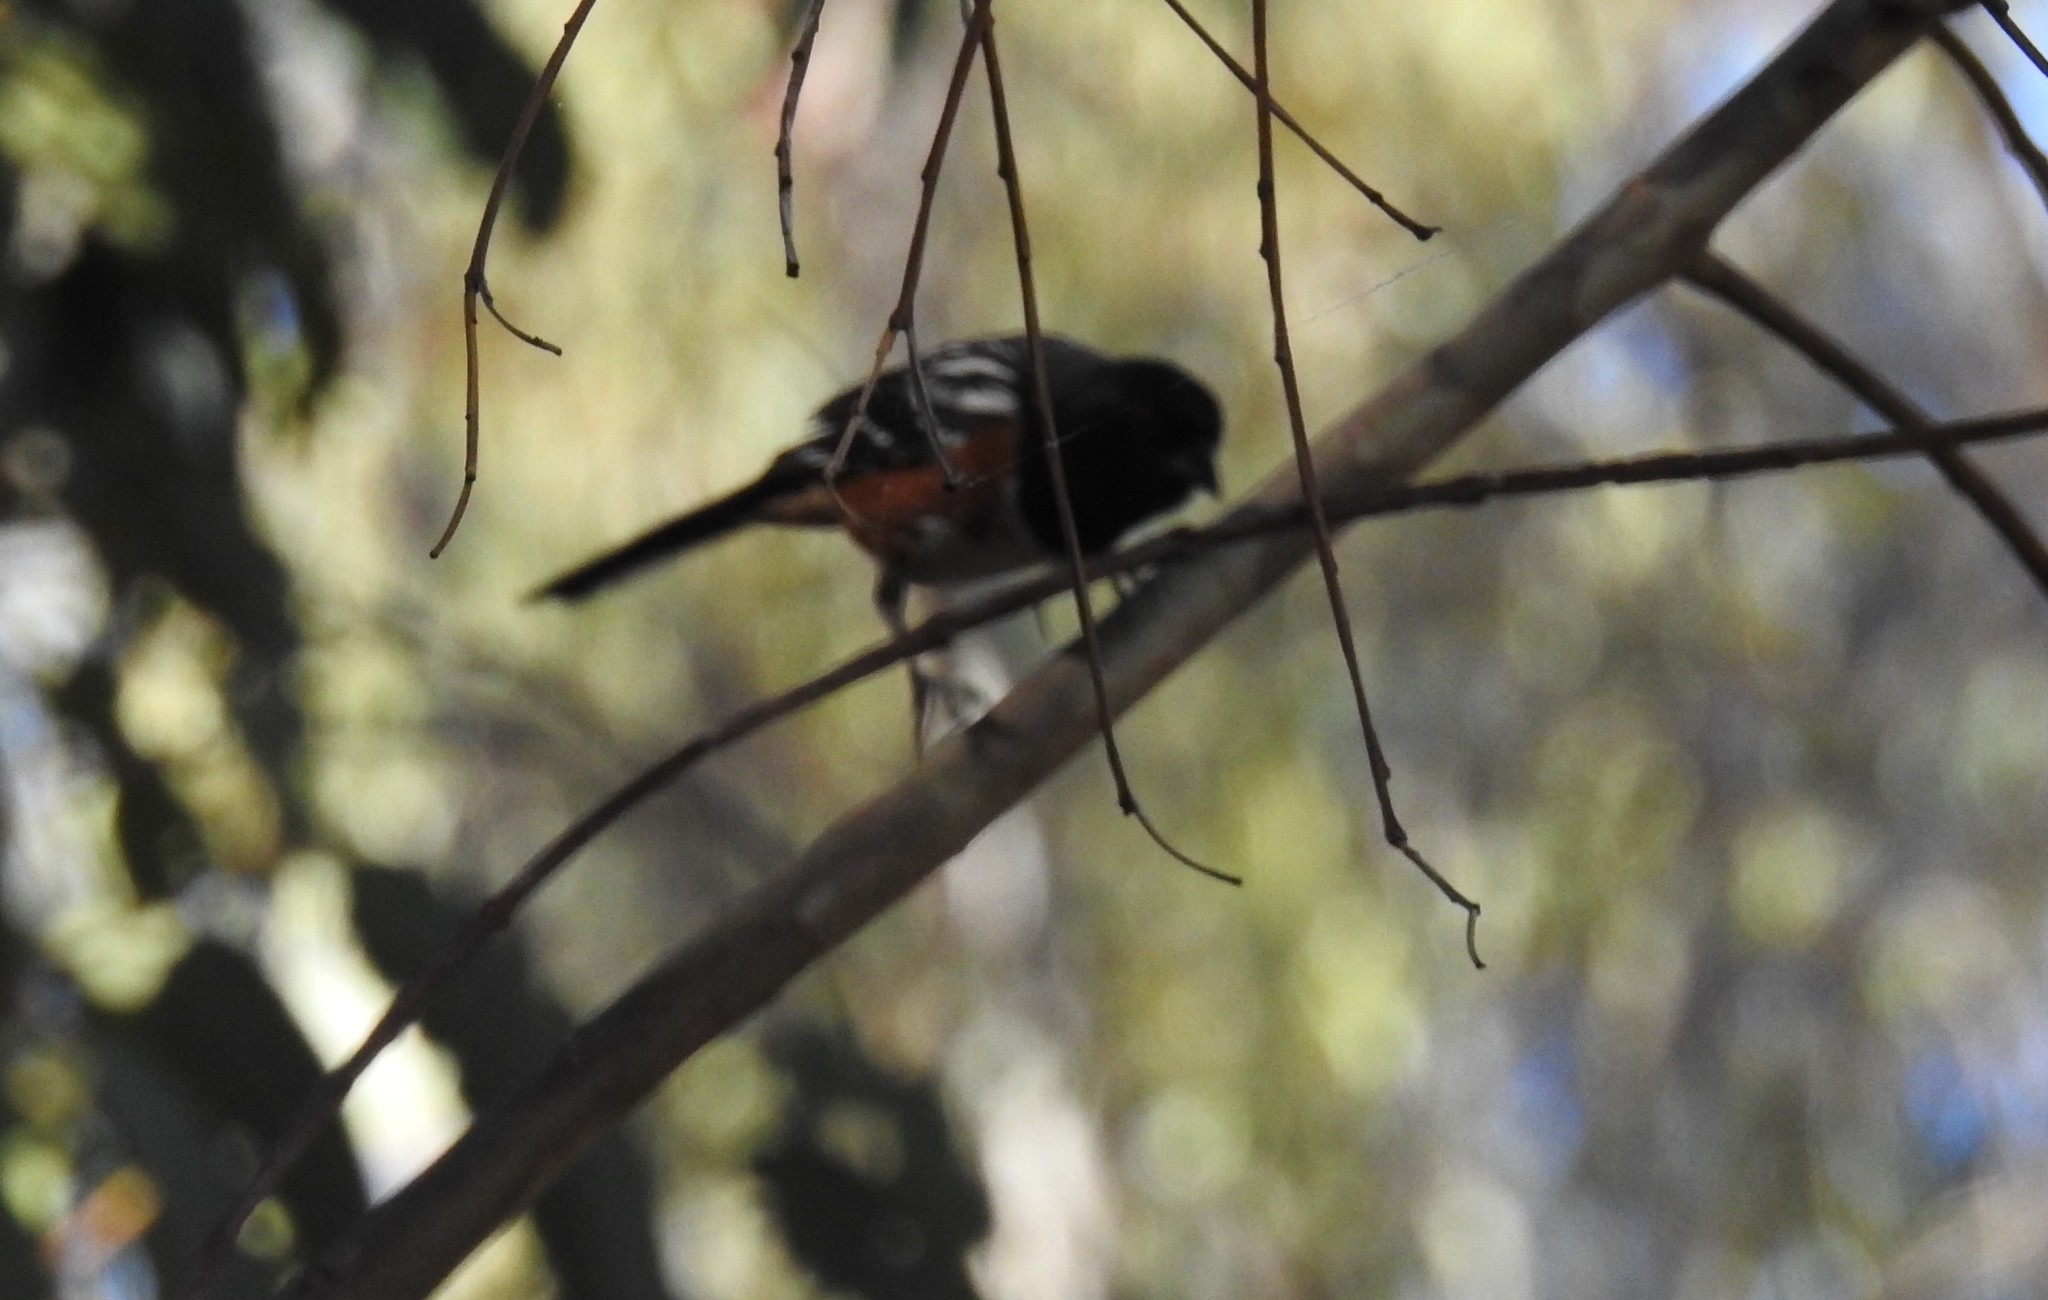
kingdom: Animalia
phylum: Chordata
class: Aves
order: Passeriformes
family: Passerellidae
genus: Pipilo
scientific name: Pipilo maculatus
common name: Spotted towhee
